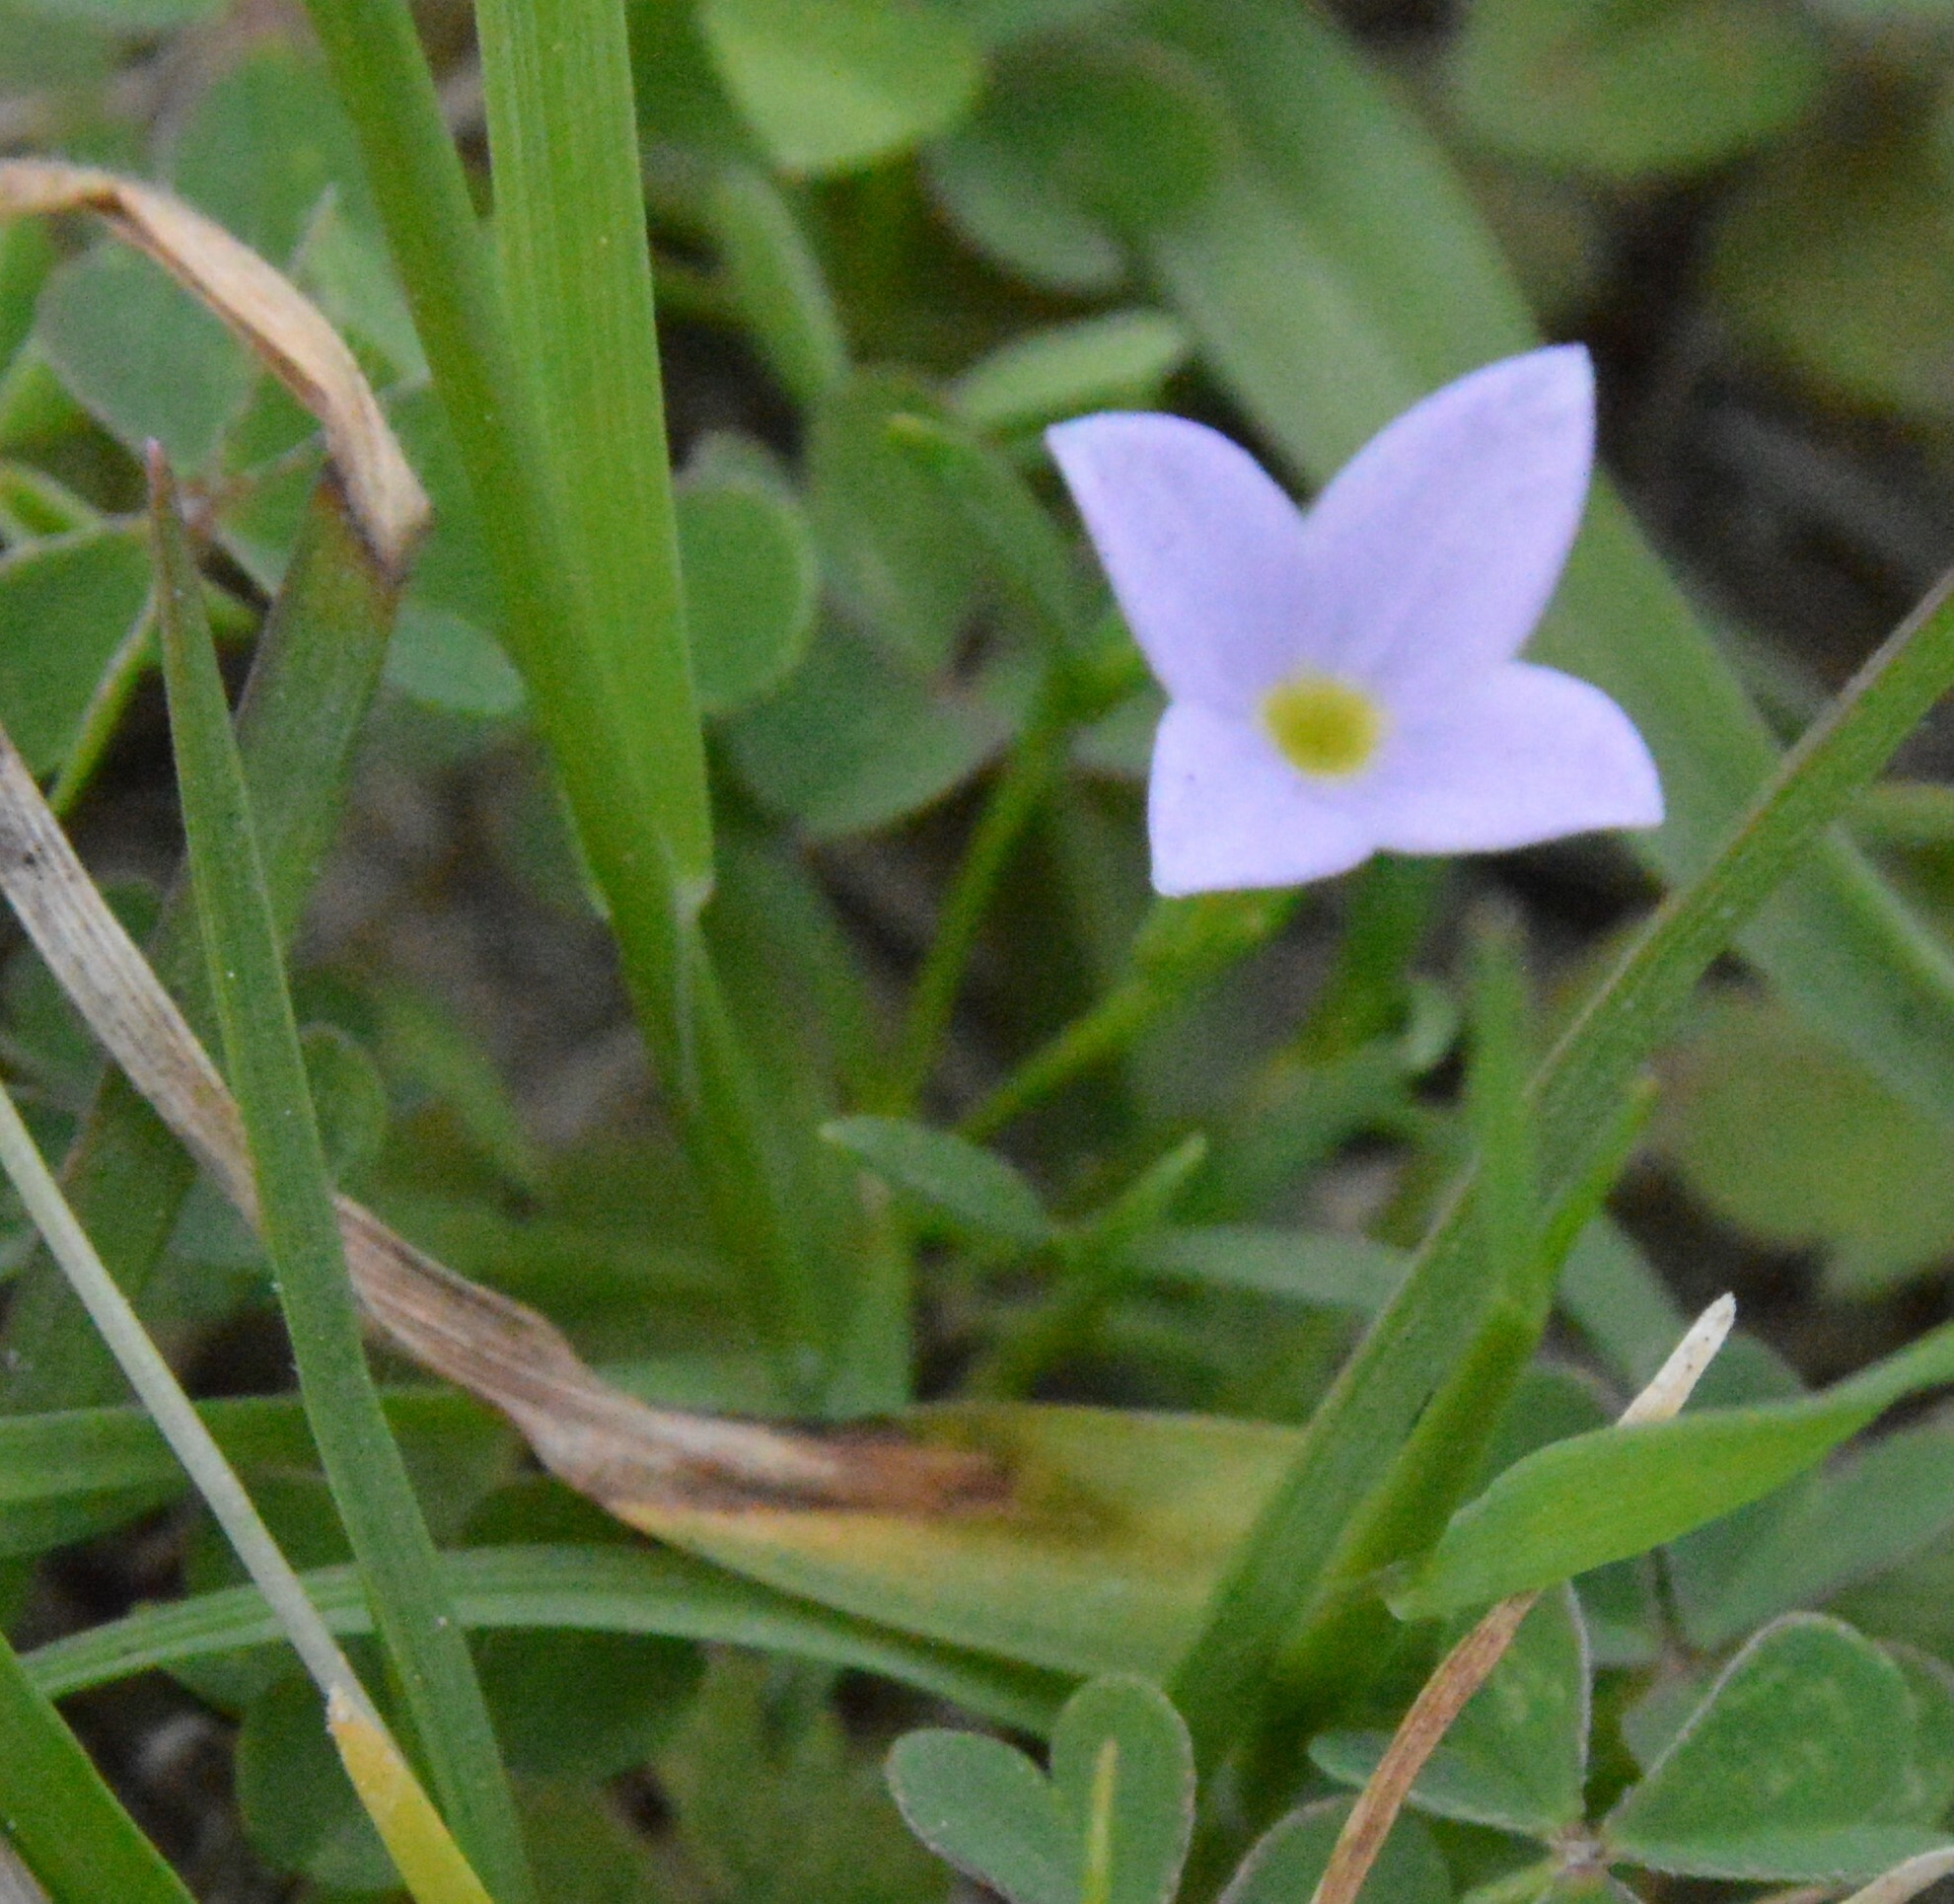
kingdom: Plantae
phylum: Tracheophyta
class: Magnoliopsida
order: Gentianales
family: Rubiaceae
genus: Houstonia
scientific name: Houstonia rosea
